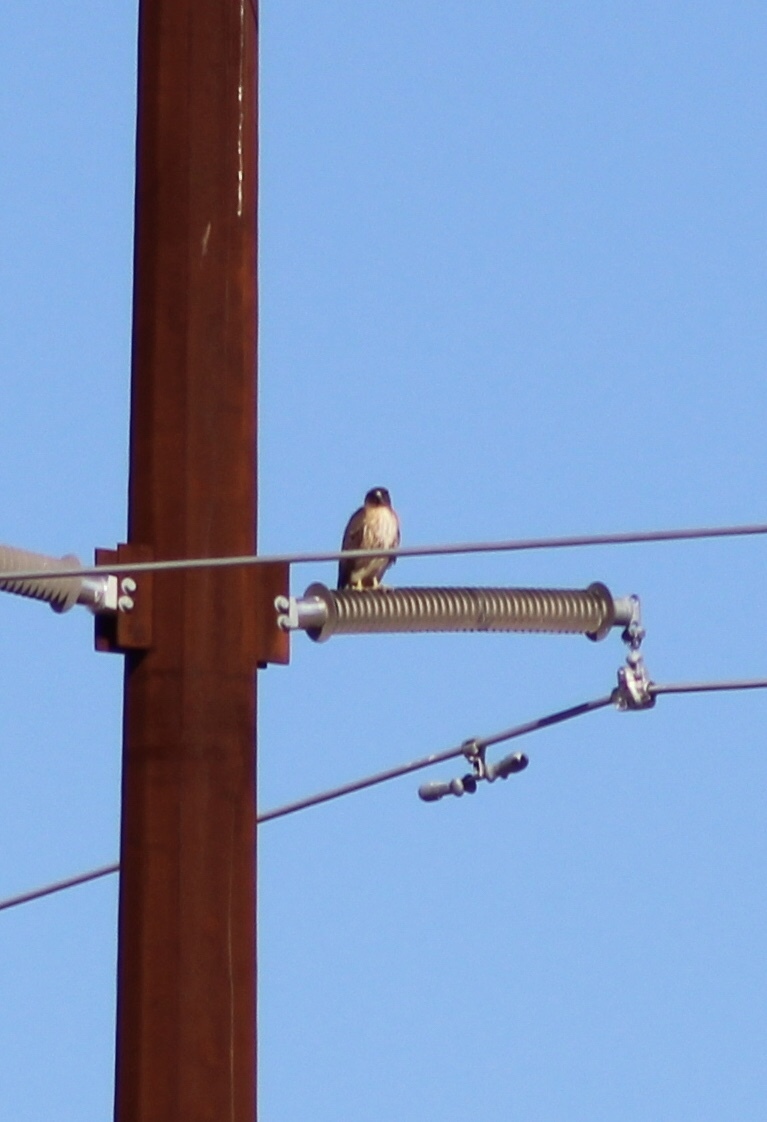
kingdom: Animalia
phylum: Chordata
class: Aves
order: Accipitriformes
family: Accipitridae
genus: Buteo
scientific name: Buteo jamaicensis
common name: Red-tailed hawk
